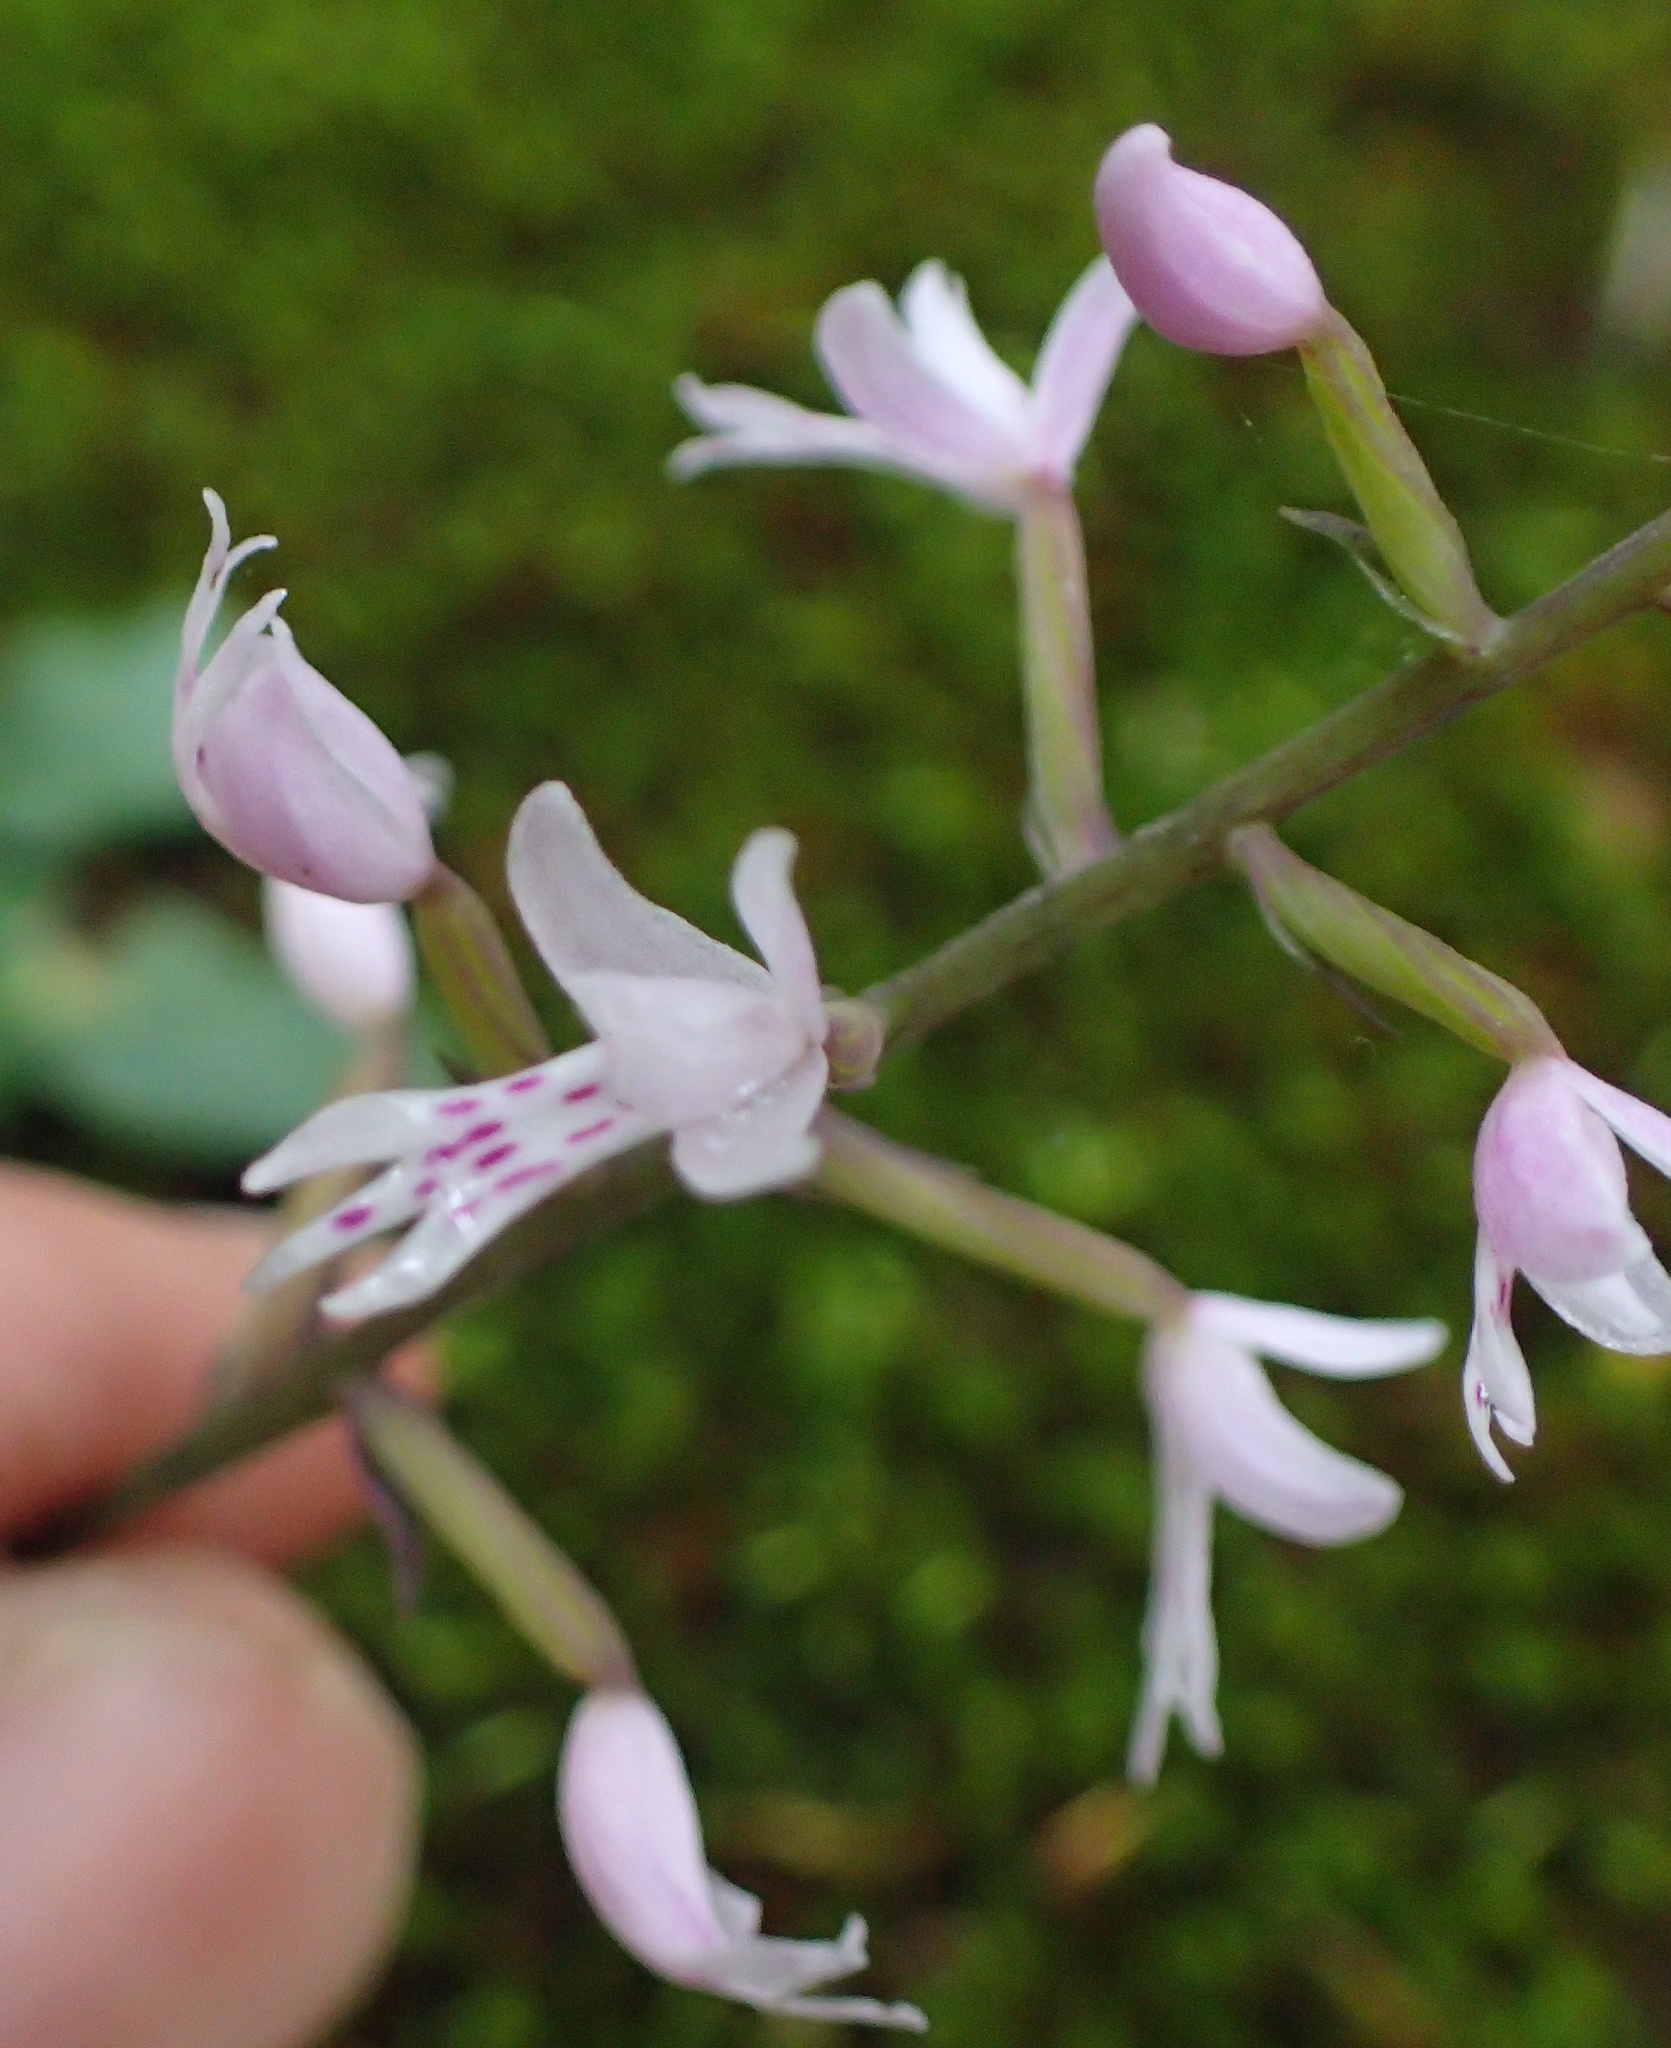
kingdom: Plantae
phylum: Tracheophyta
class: Liliopsida
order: Asparagales
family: Orchidaceae
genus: Stenoglottis
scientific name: Stenoglottis fimbriata
